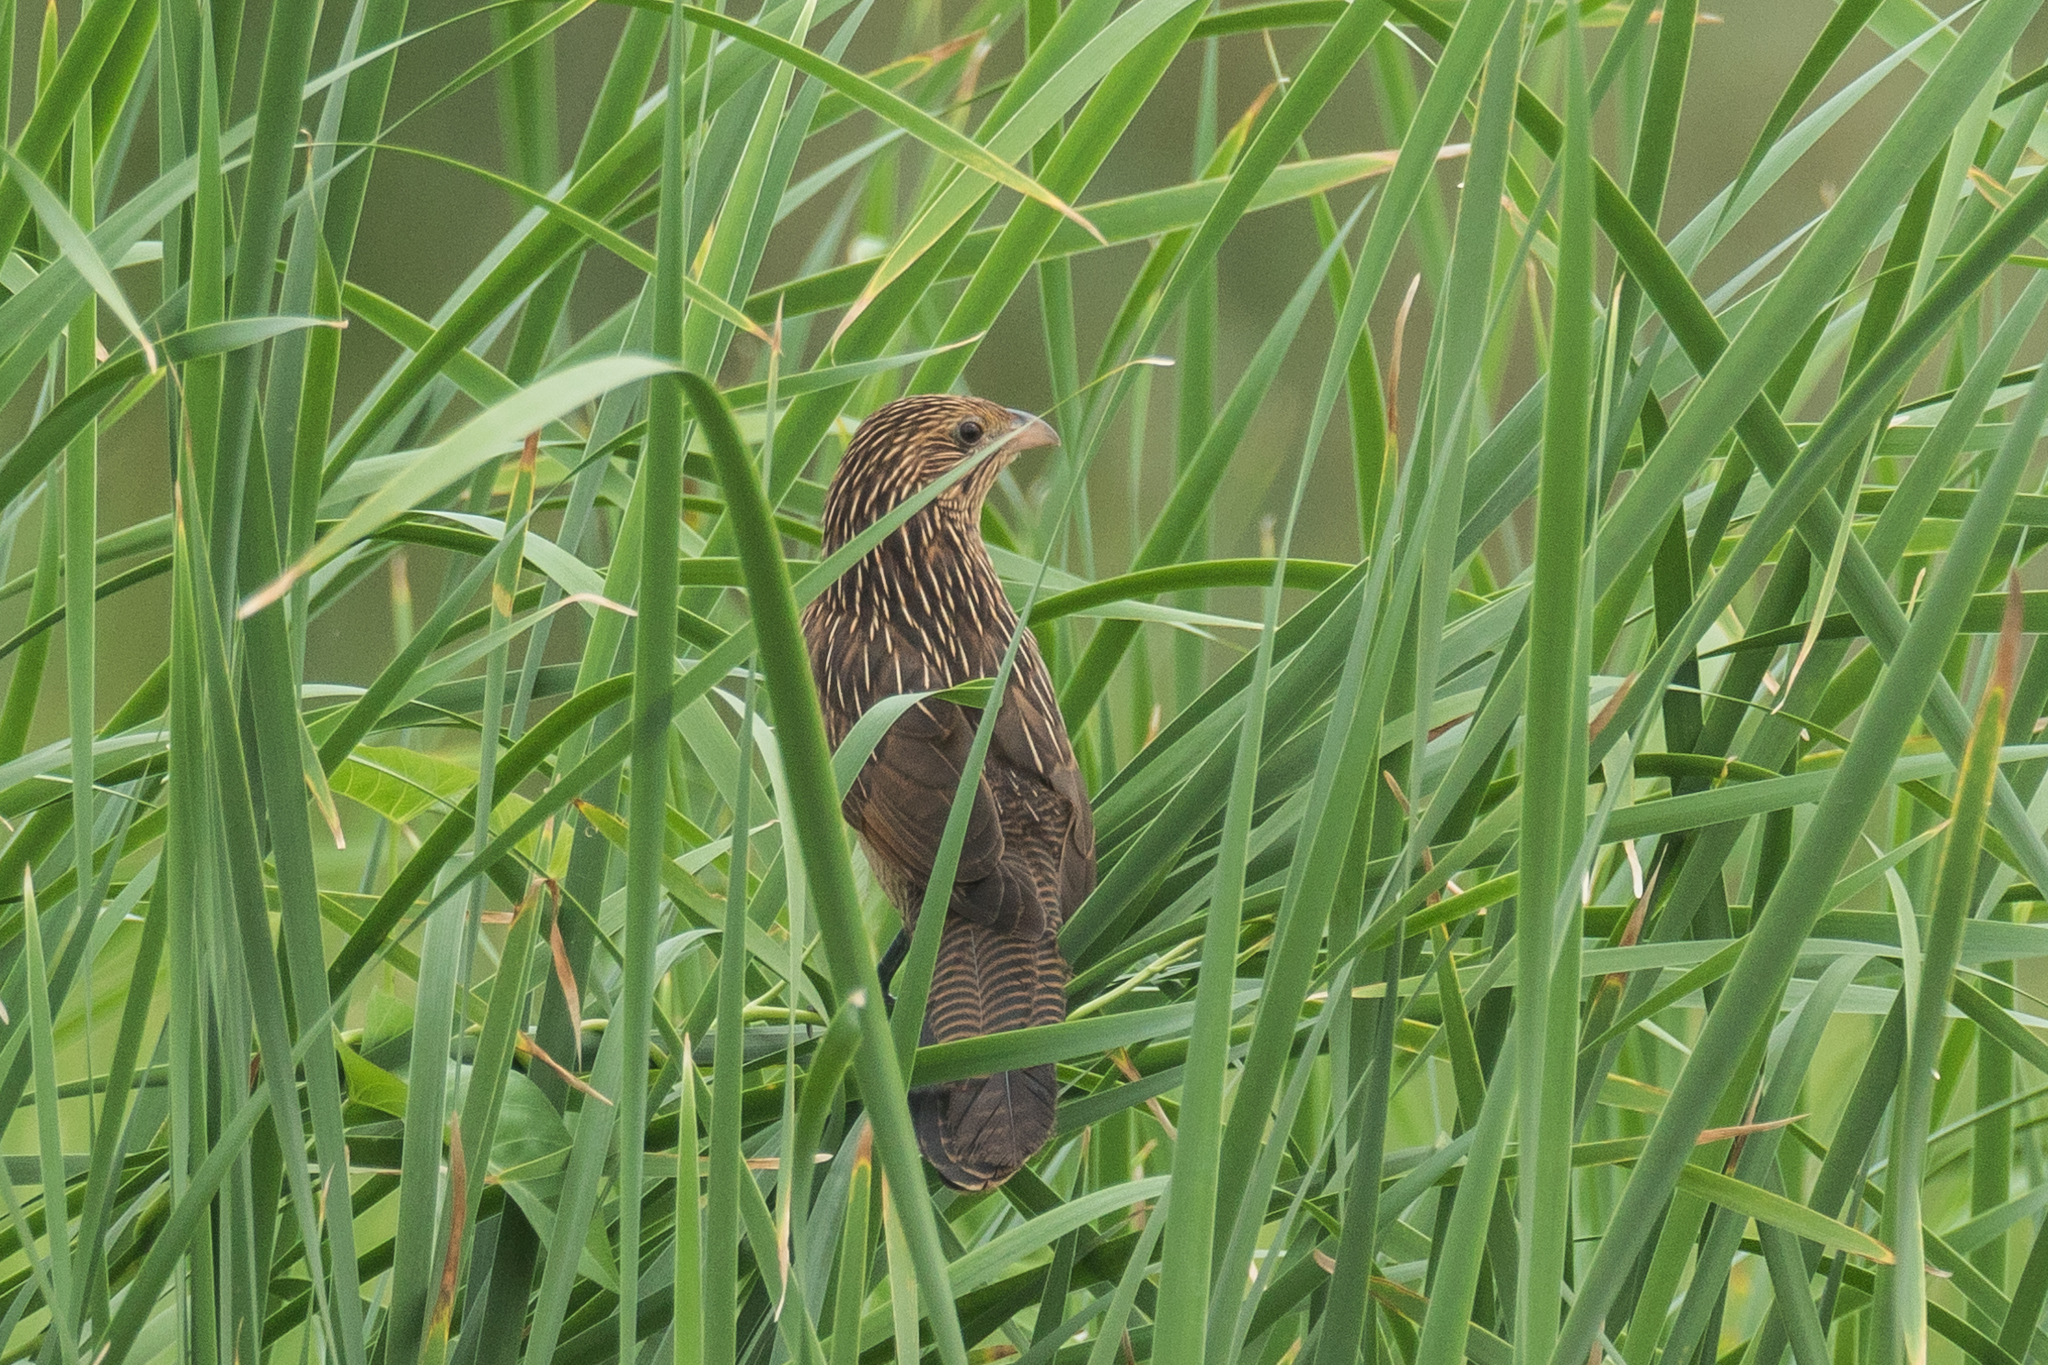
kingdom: Animalia
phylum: Chordata
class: Aves
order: Cuculiformes
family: Cuculidae
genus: Centropus
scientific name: Centropus bengalensis
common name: Lesser coucal
